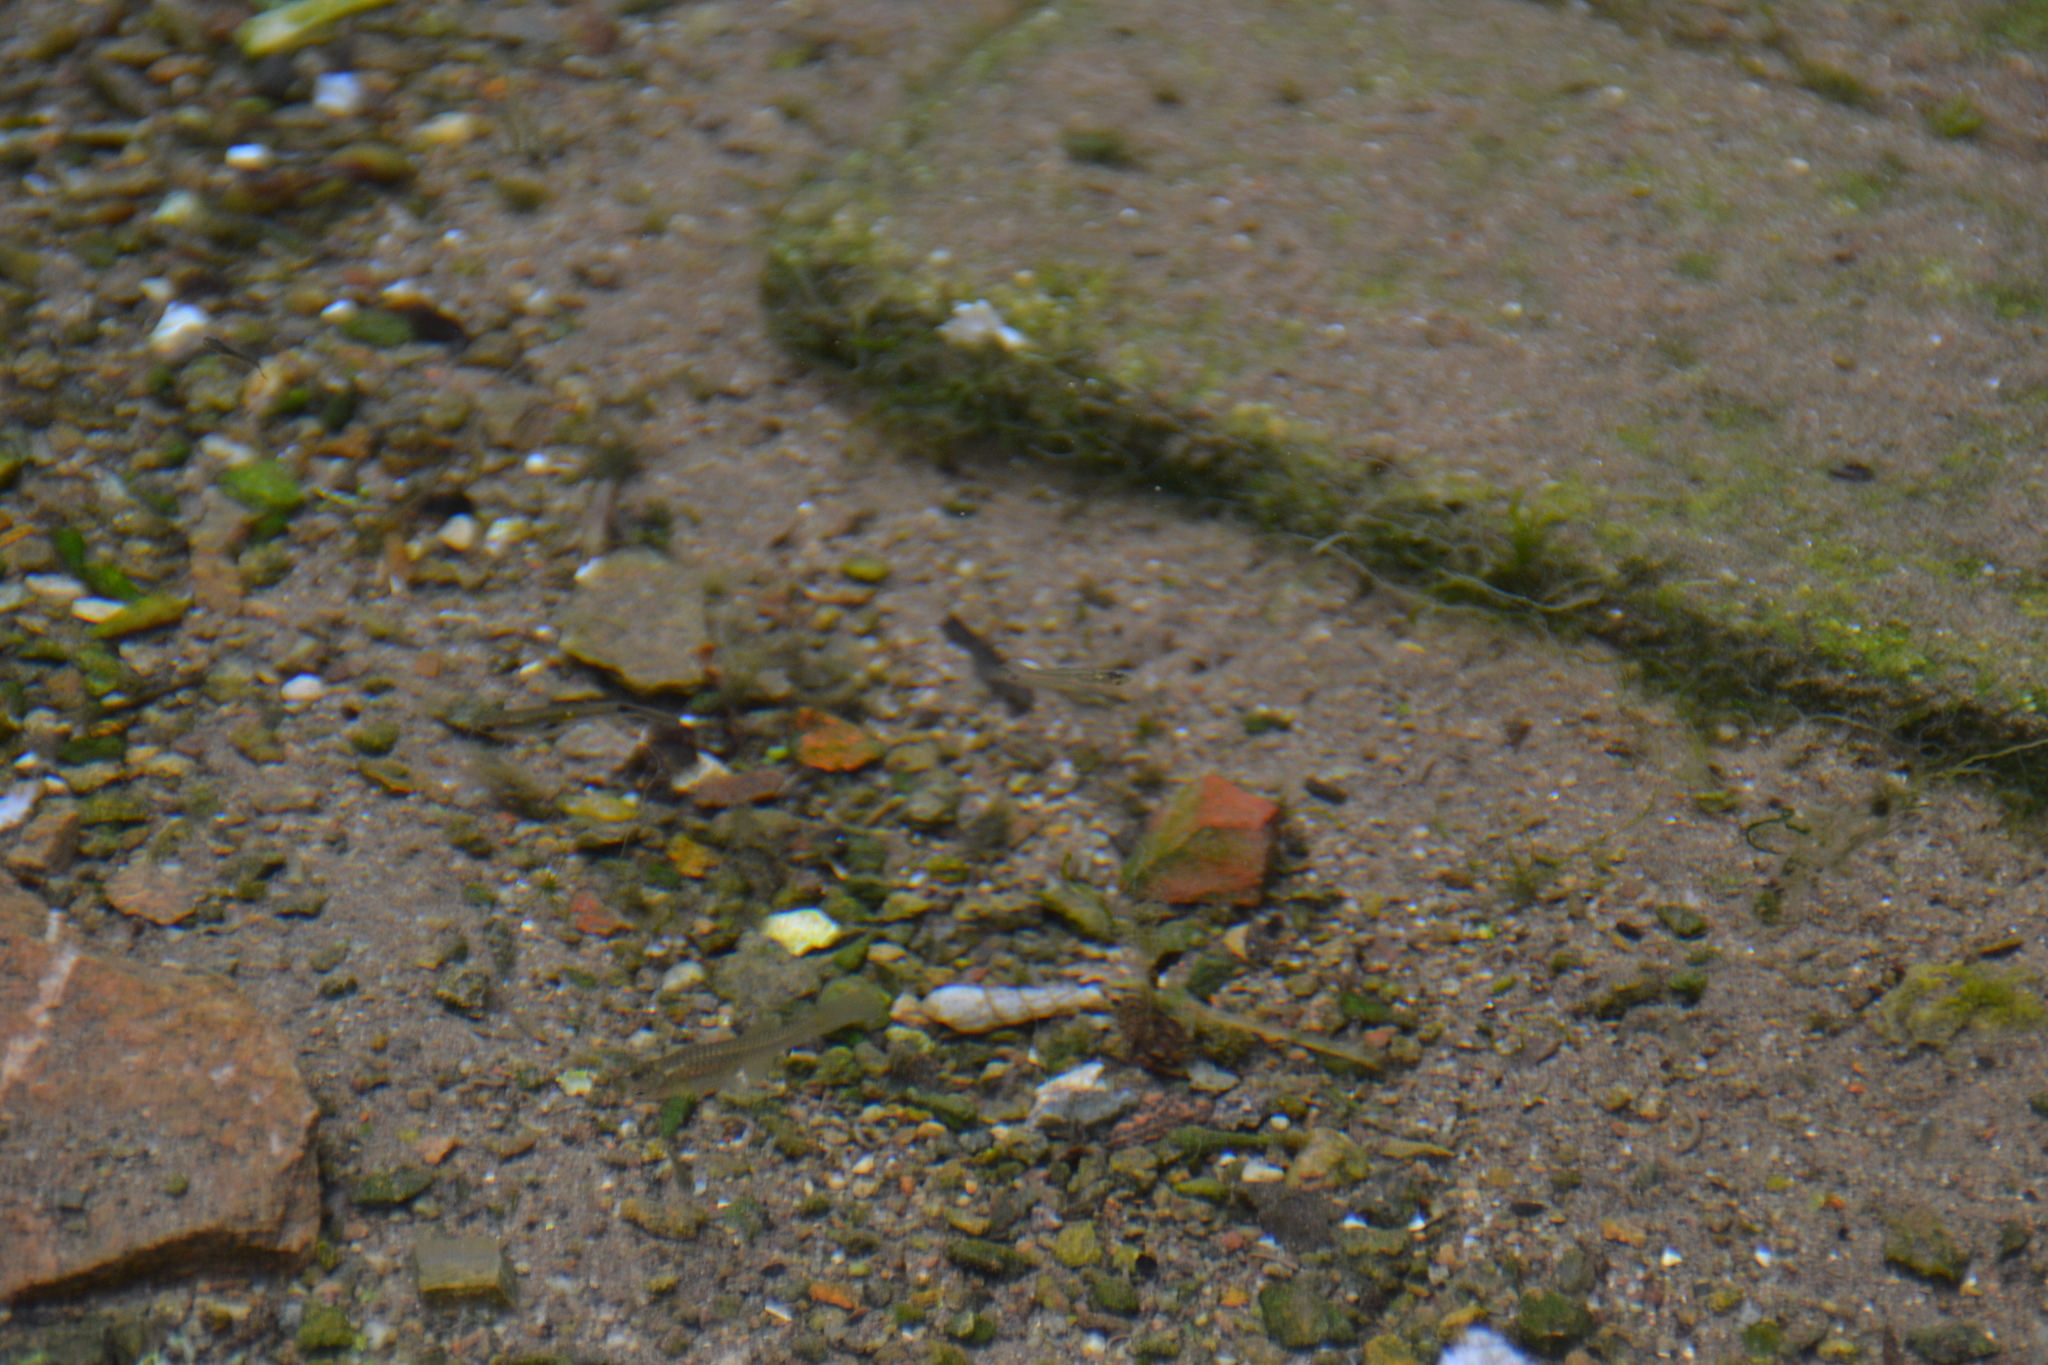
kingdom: Animalia
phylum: Mollusca
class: Gastropoda
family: Thiaridae
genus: Melanoides
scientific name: Melanoides tuberculata
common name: Red-rim melania
